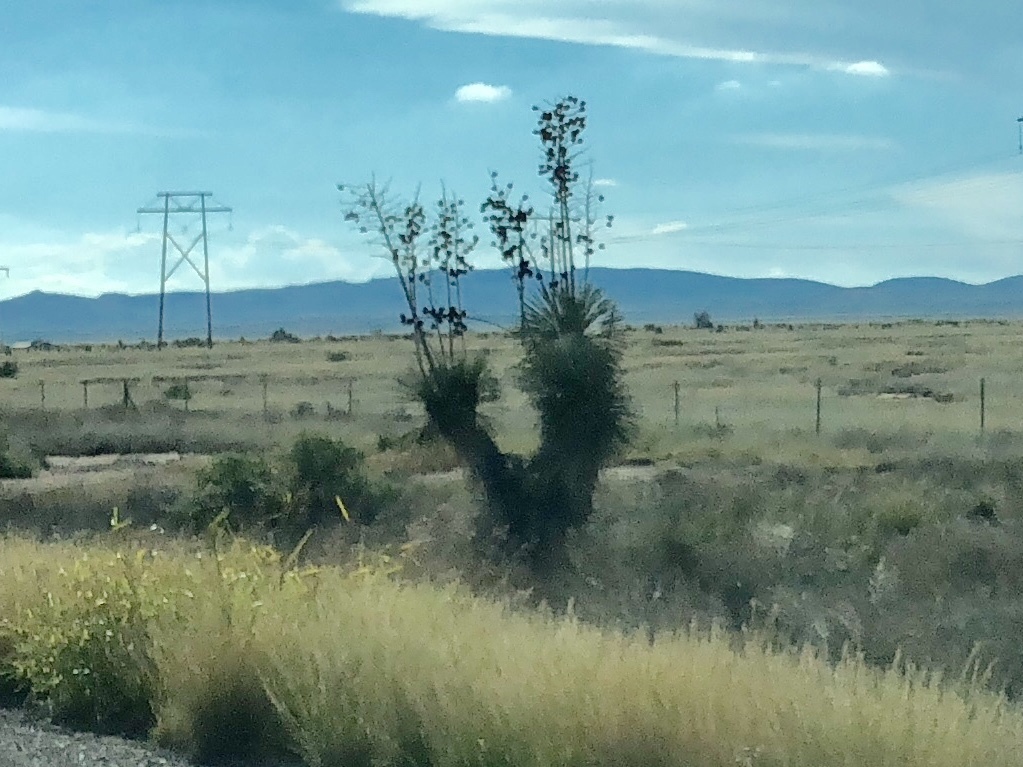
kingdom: Plantae
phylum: Tracheophyta
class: Liliopsida
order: Asparagales
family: Asparagaceae
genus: Yucca
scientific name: Yucca elata
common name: Palmella
